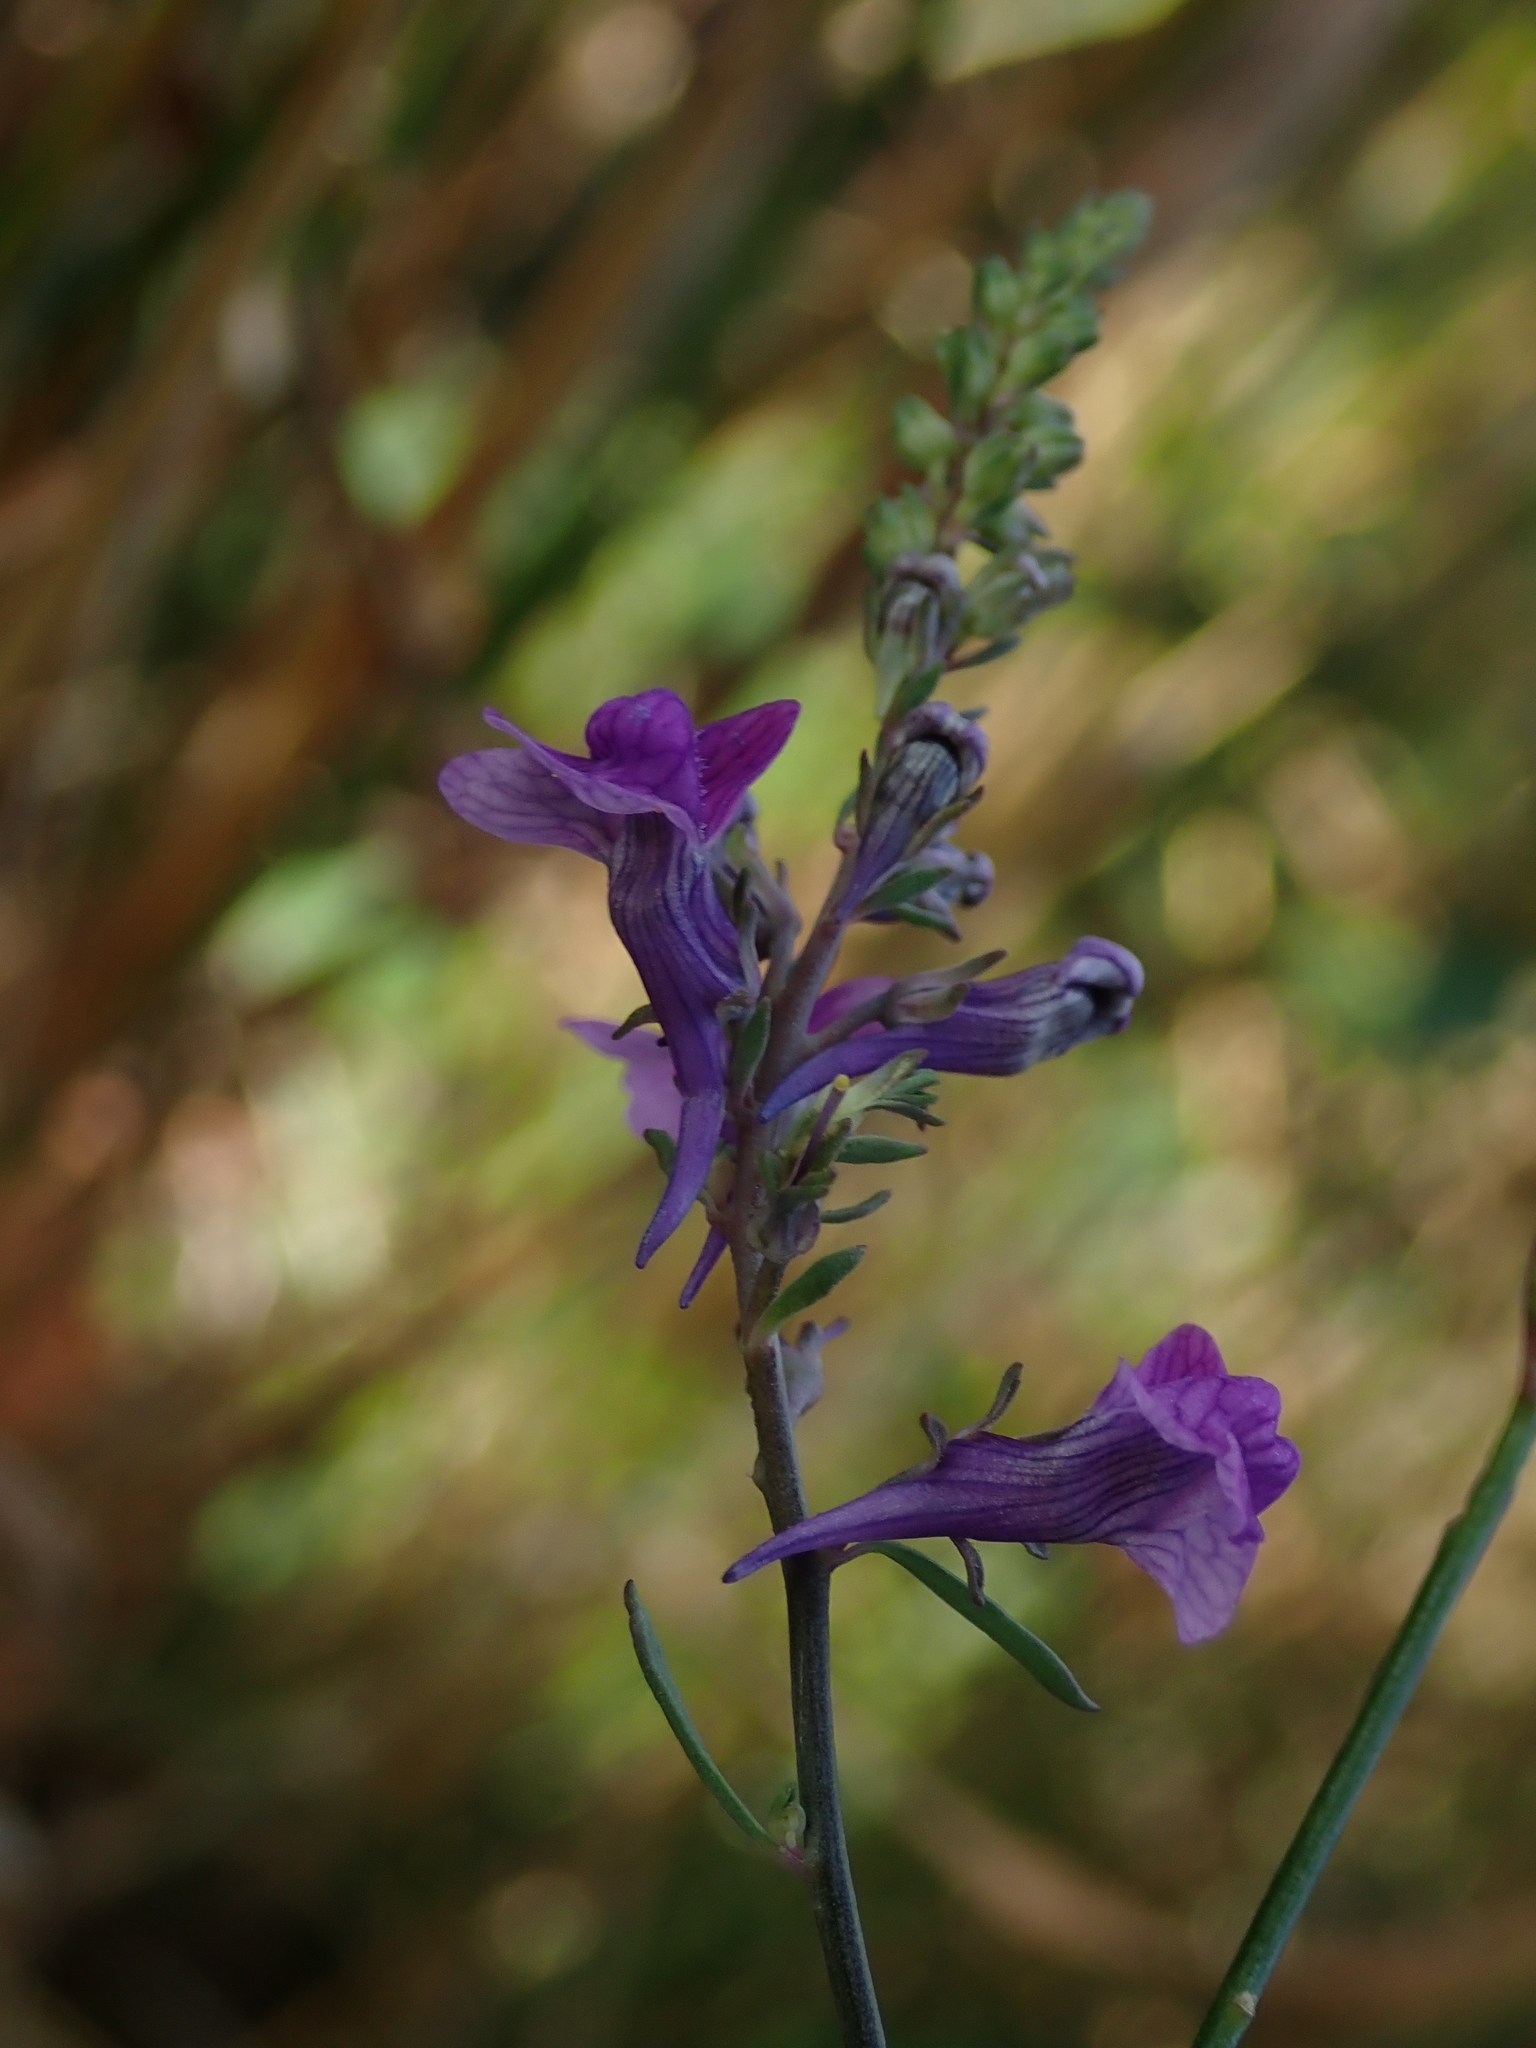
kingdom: Plantae
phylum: Tracheophyta
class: Magnoliopsida
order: Lamiales
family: Plantaginaceae
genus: Linaria
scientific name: Linaria purpurea
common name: Purple toadflax
